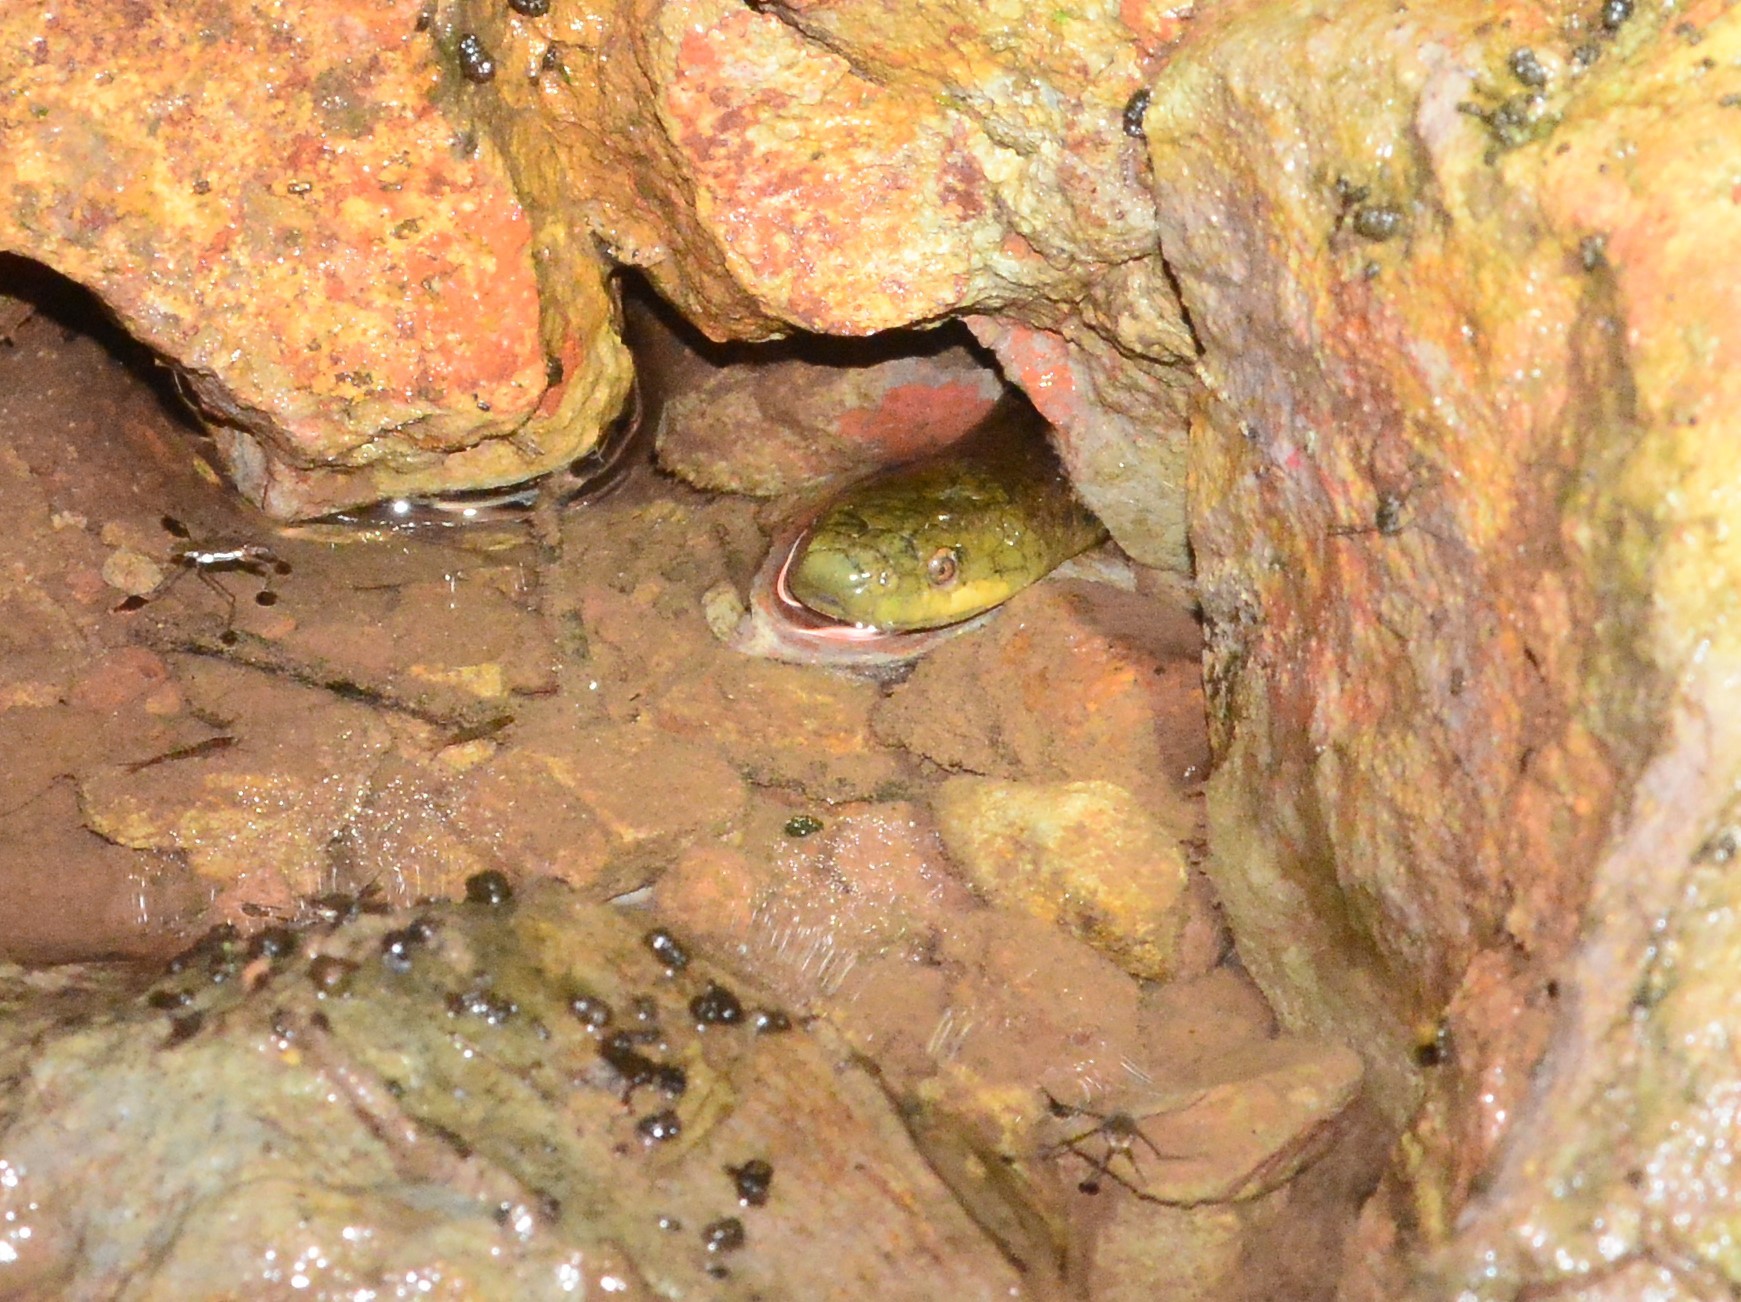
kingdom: Animalia
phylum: Chordata
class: Squamata
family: Colubridae
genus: Rhabdops
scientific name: Rhabdops aquaticus
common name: Aquatic rhabdops
